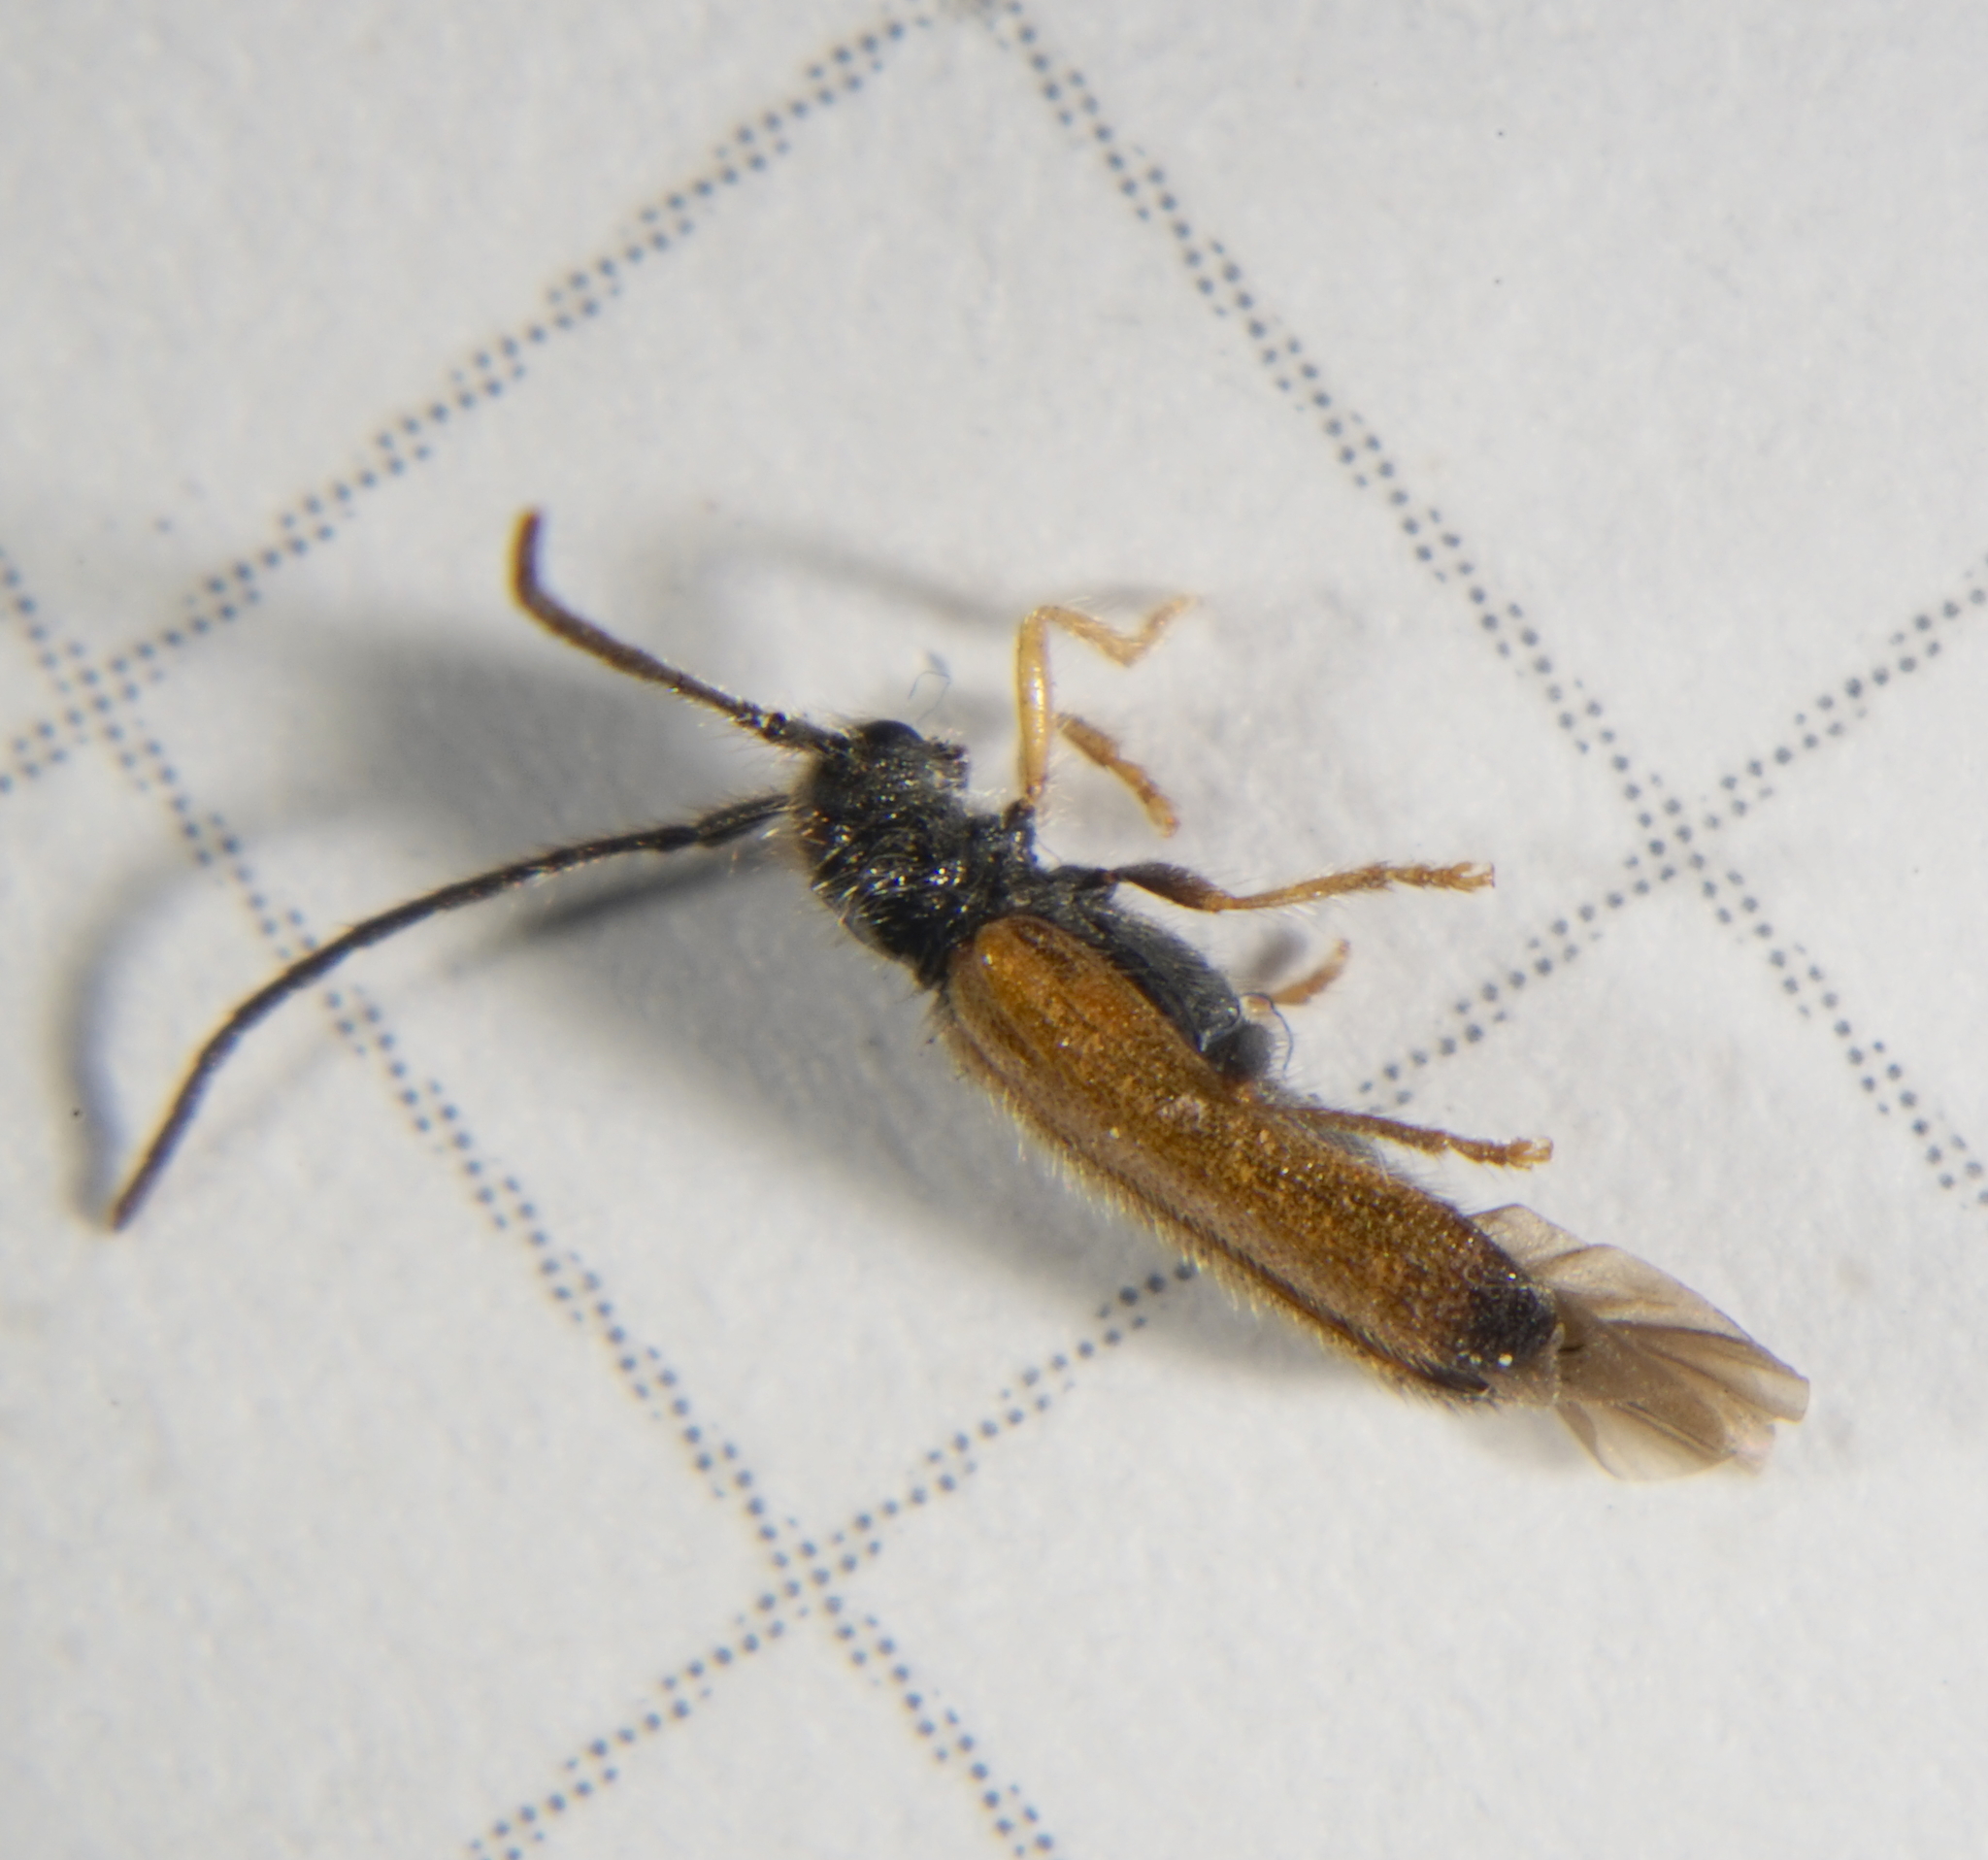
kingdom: Animalia
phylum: Arthropoda
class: Insecta
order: Coleoptera
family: Cerambycidae
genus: Tetrops
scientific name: Tetrops praeustus
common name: Plum beetle
